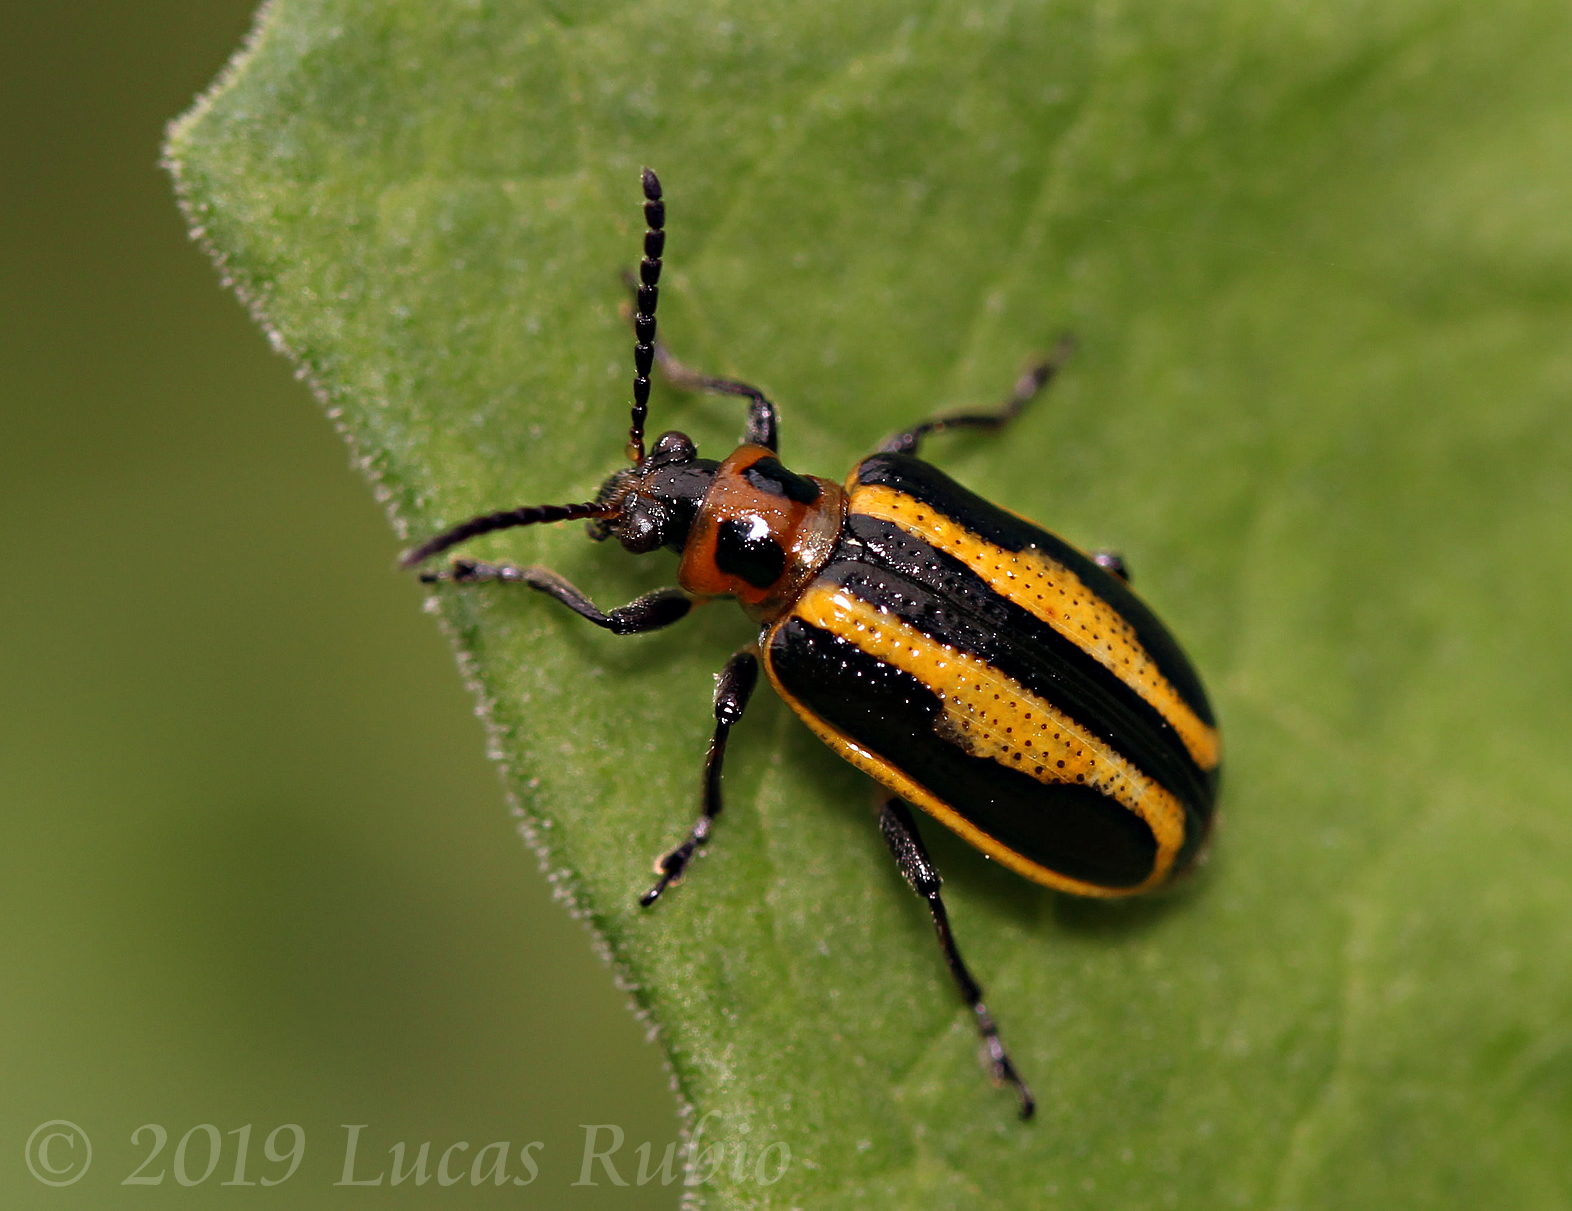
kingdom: Animalia
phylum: Arthropoda
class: Insecta
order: Coleoptera
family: Chrysomelidae
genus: Lema
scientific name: Lema bilineata
